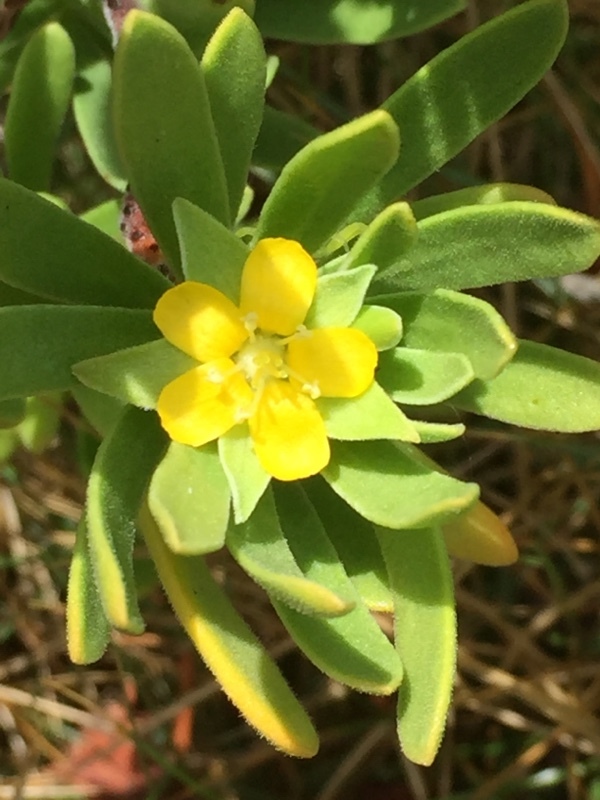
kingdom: Plantae
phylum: Tracheophyta
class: Magnoliopsida
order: Fabales
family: Surianaceae
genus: Suriana
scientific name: Suriana maritima
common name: Bay-cedar
